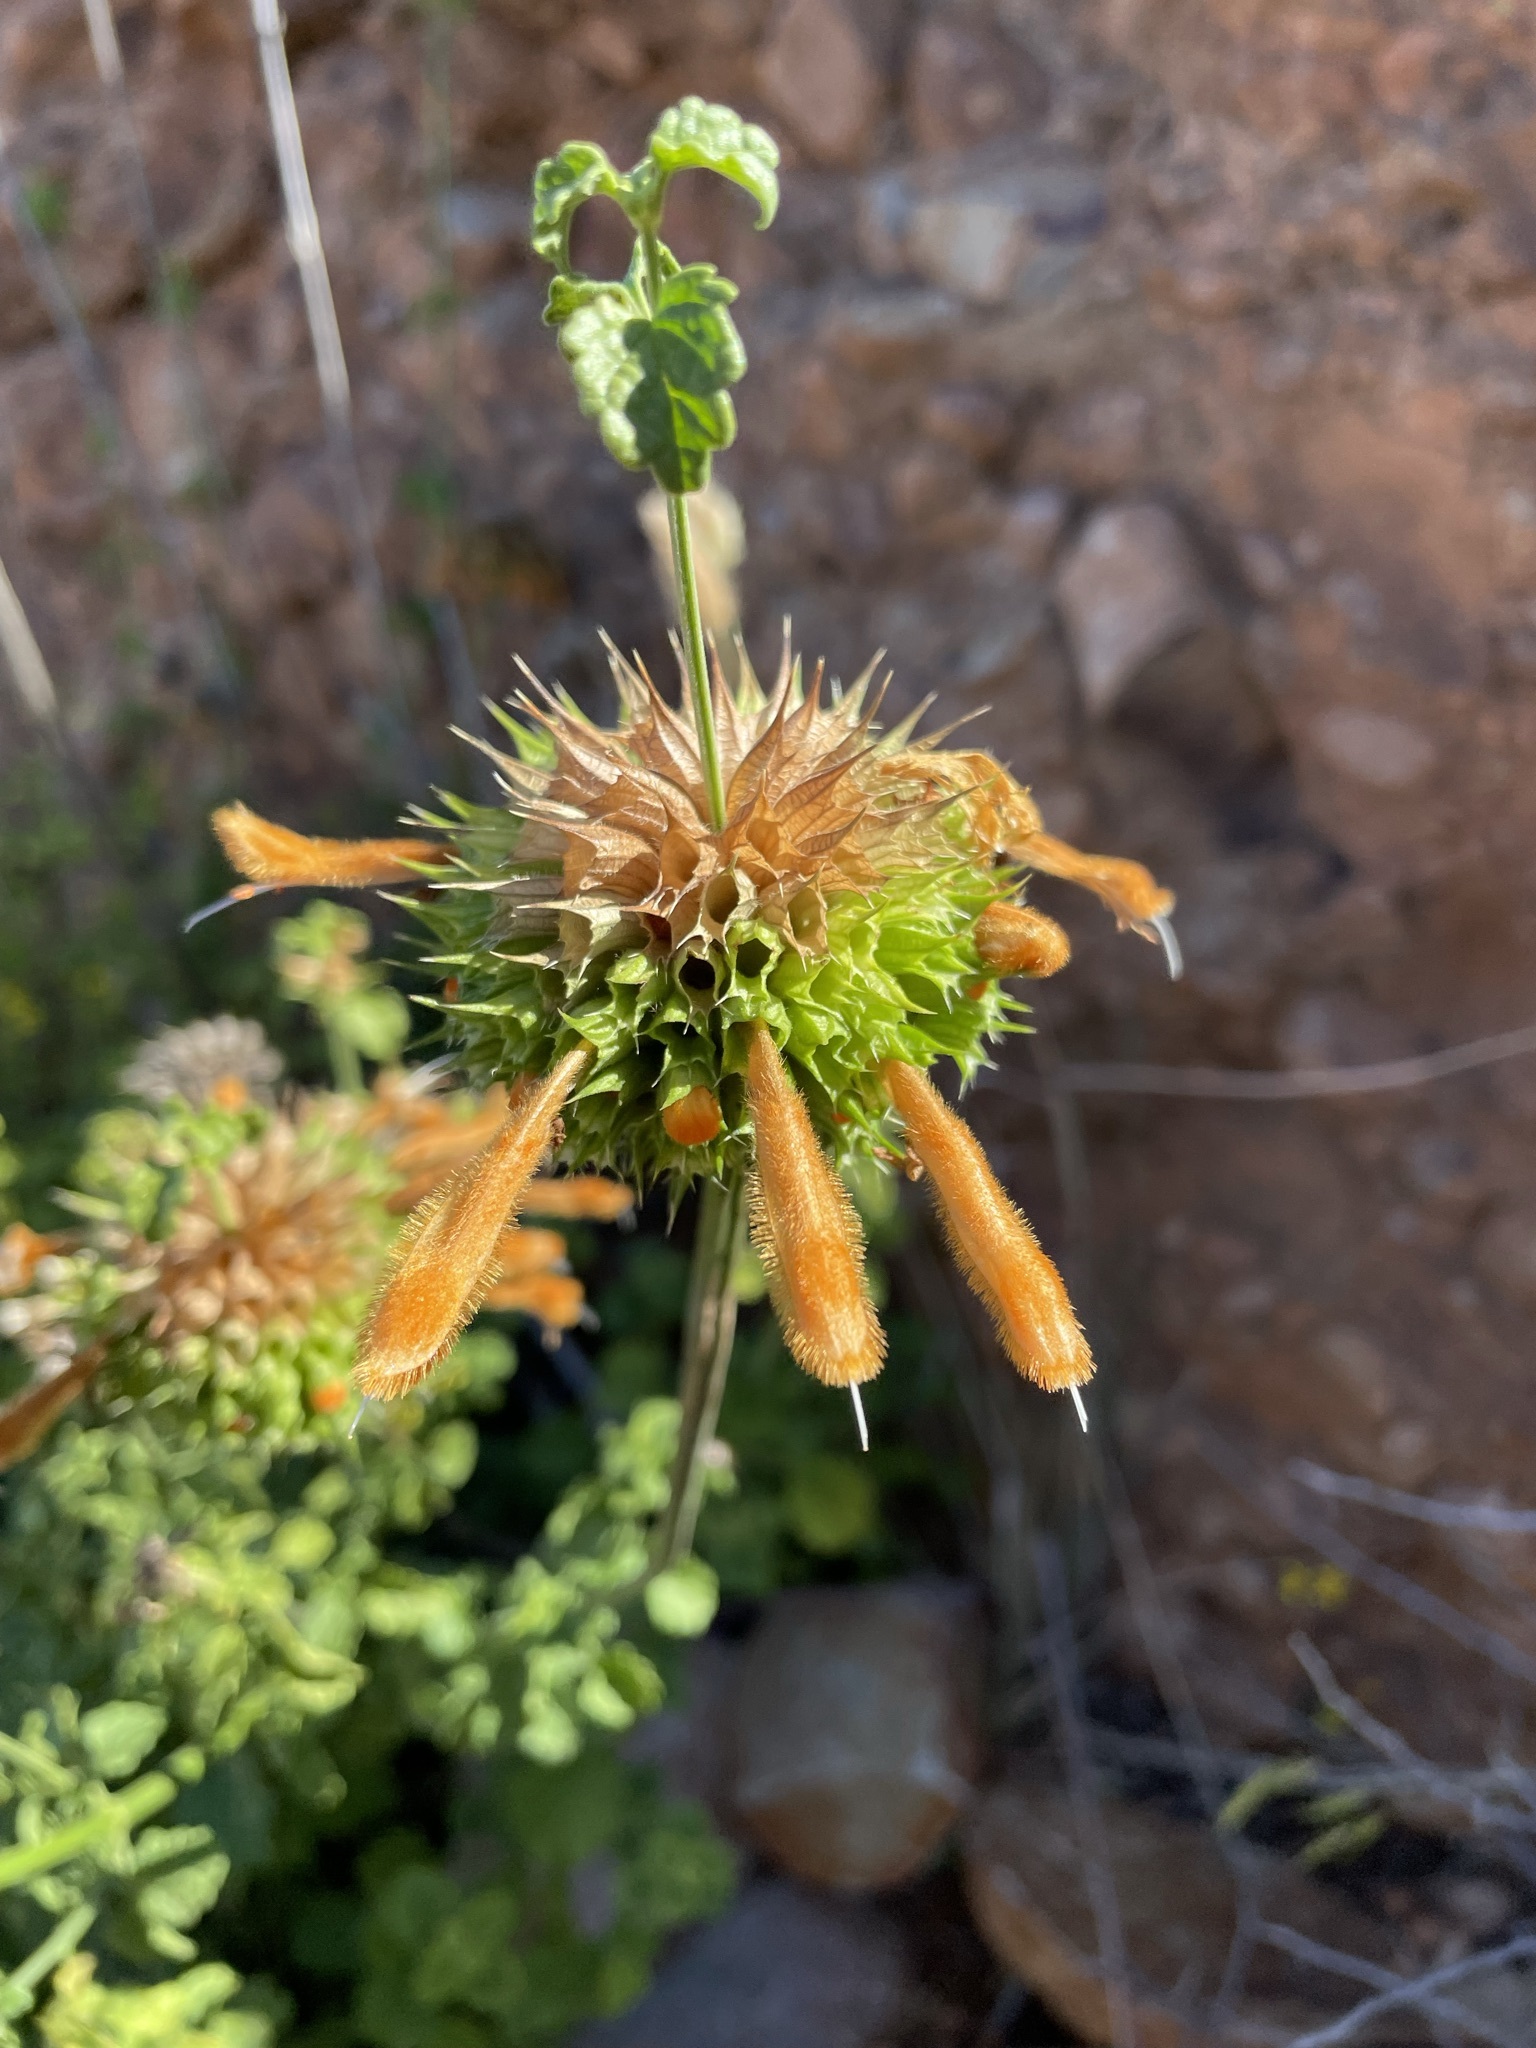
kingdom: Plantae
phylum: Tracheophyta
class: Magnoliopsida
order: Lamiales
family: Lamiaceae
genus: Leonotis
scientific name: Leonotis ocymifolia
